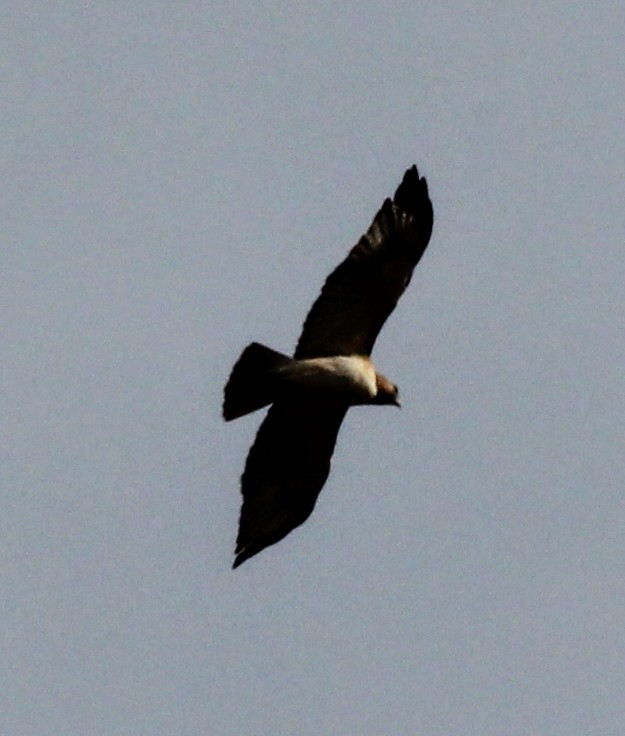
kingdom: Animalia
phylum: Chordata
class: Aves
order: Accipitriformes
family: Accipitridae
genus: Buteo
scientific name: Buteo jamaicensis
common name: Red-tailed hawk
